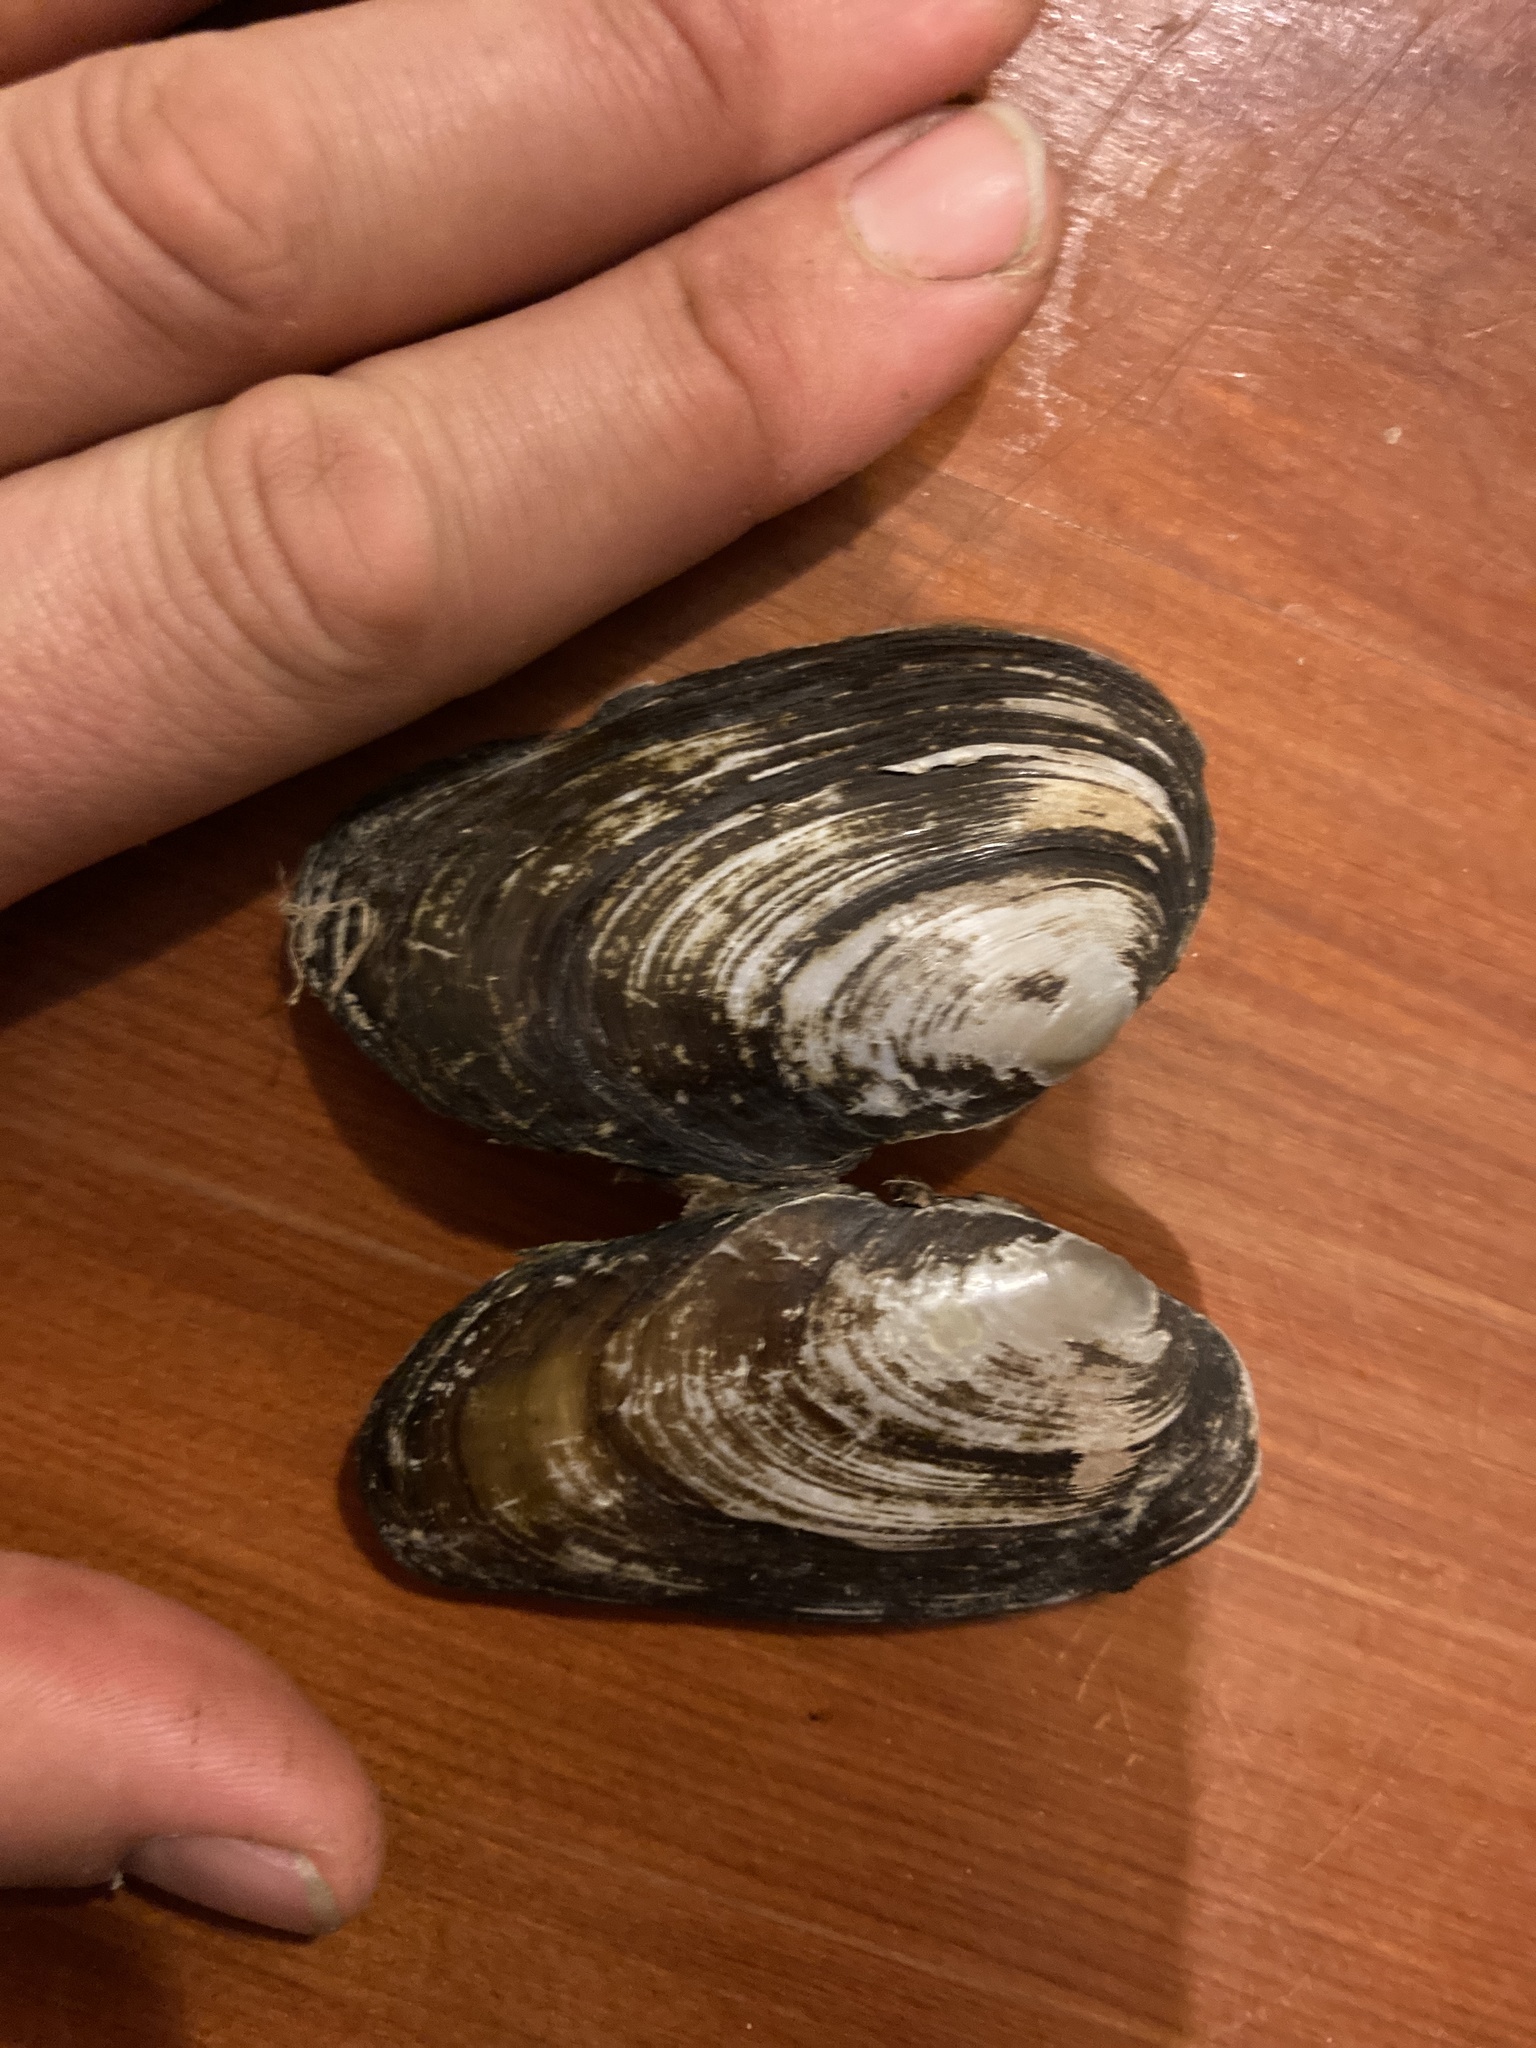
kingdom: Animalia
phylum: Mollusca
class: Bivalvia
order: Unionida
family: Hyriidae
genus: Echyridella
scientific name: Echyridella menziesii
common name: New zealand freshwater mussel
